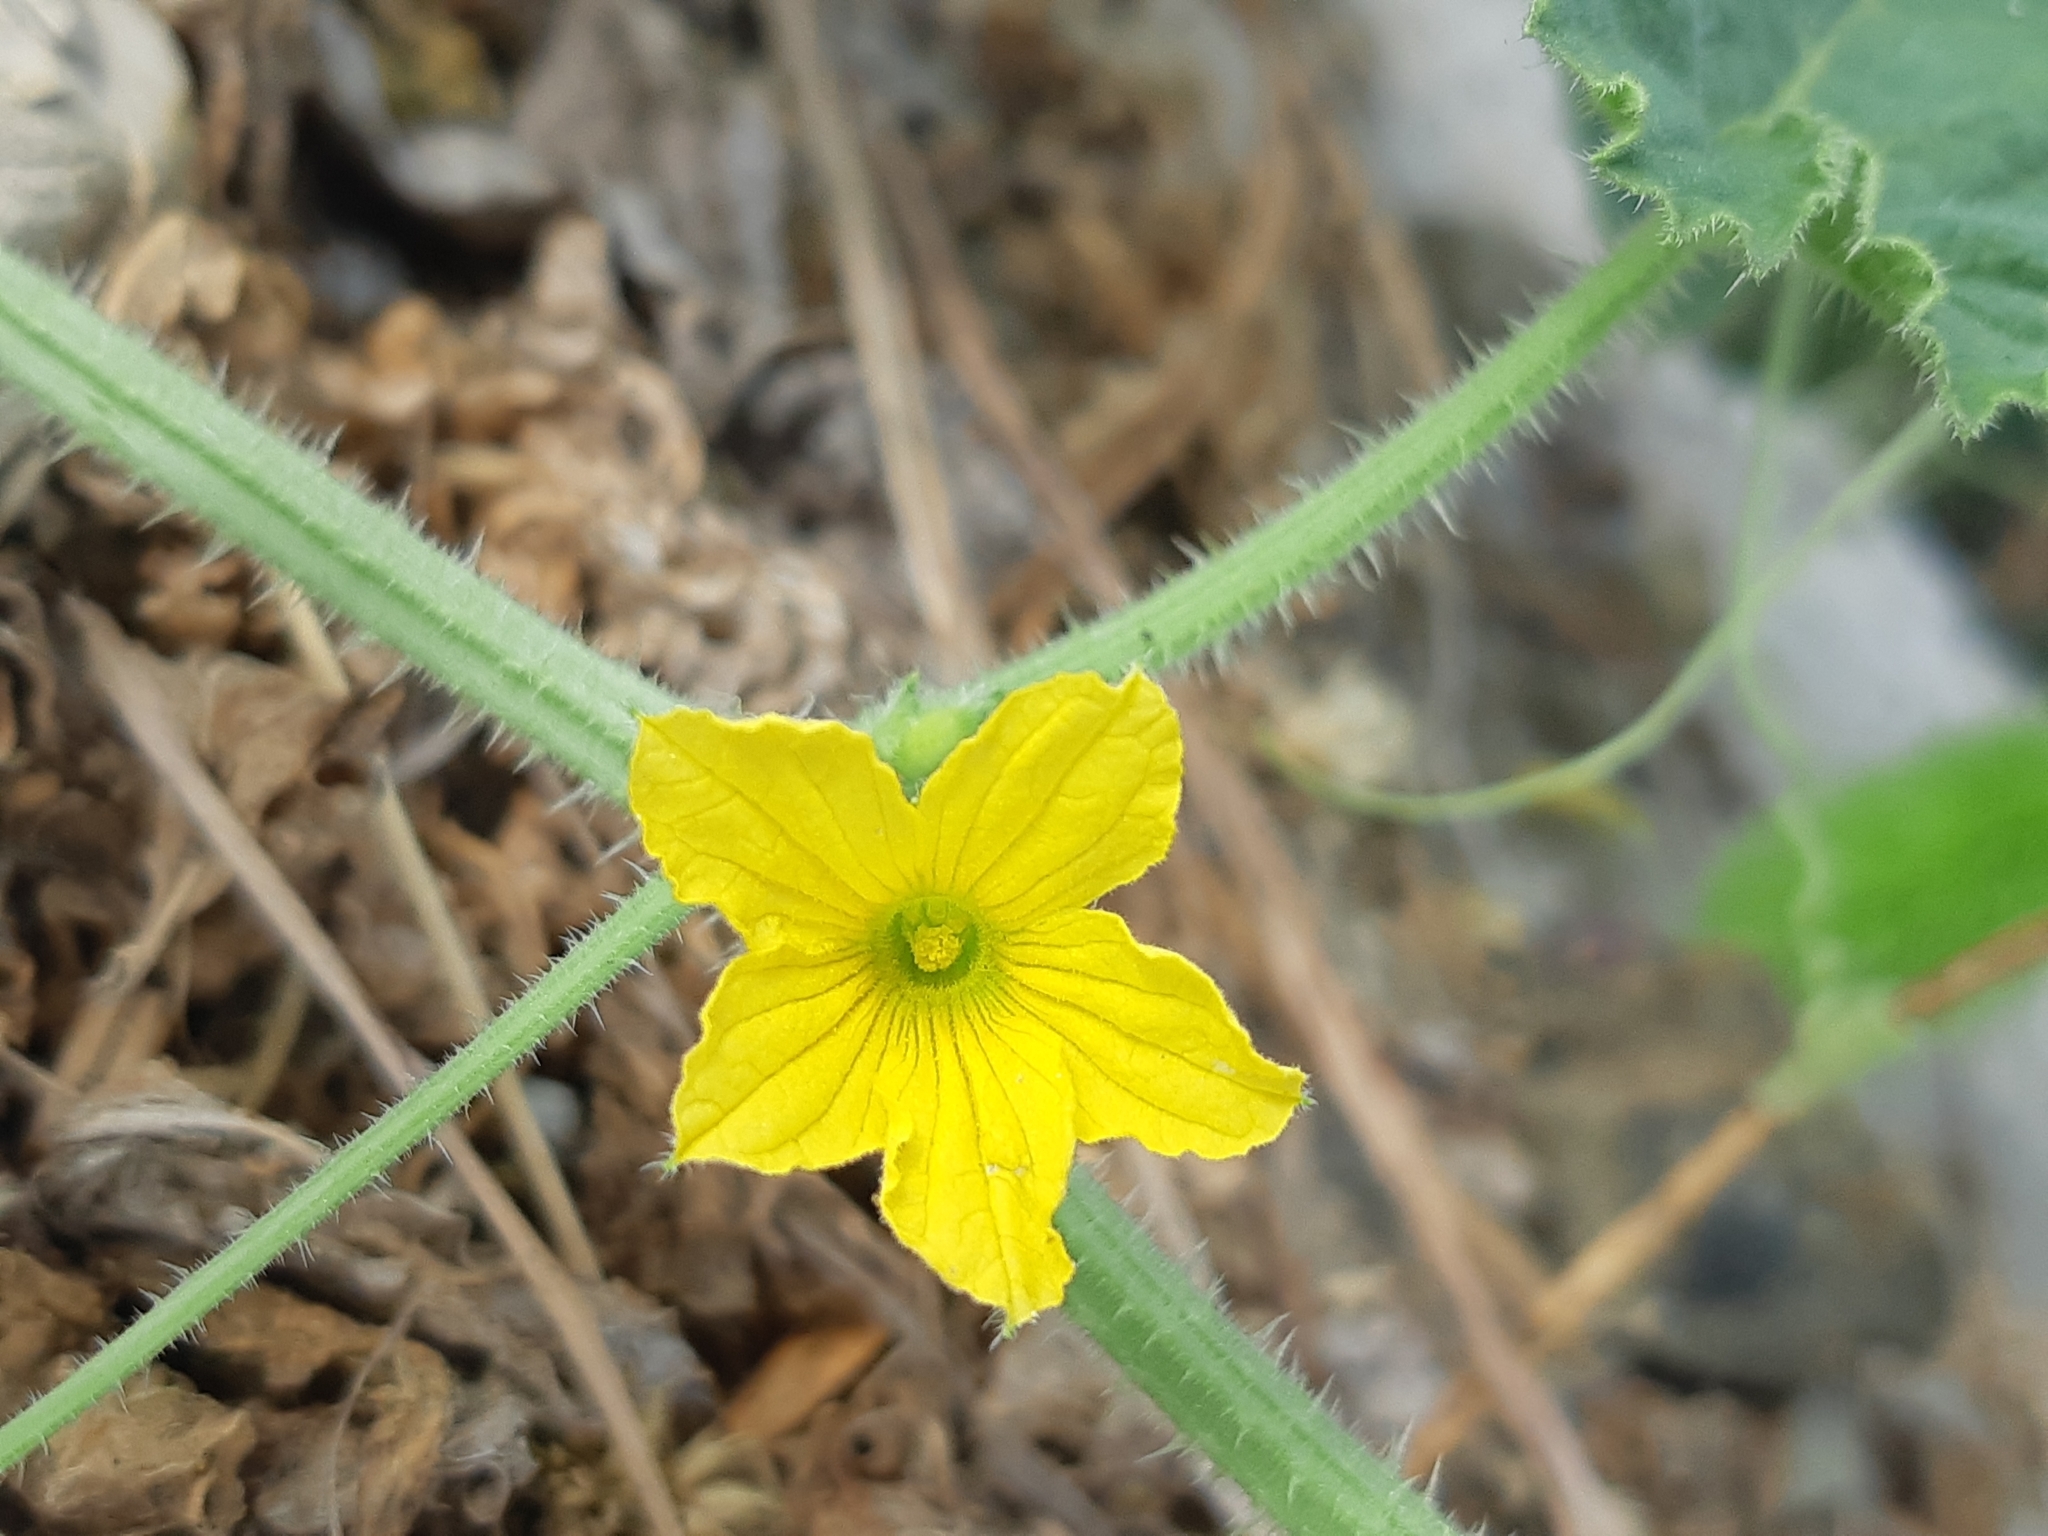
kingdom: Plantae
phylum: Tracheophyta
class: Magnoliopsida
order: Cucurbitales
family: Cucurbitaceae
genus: Cucumis
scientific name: Cucumis dipsaceus
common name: Hedgehog gourd
